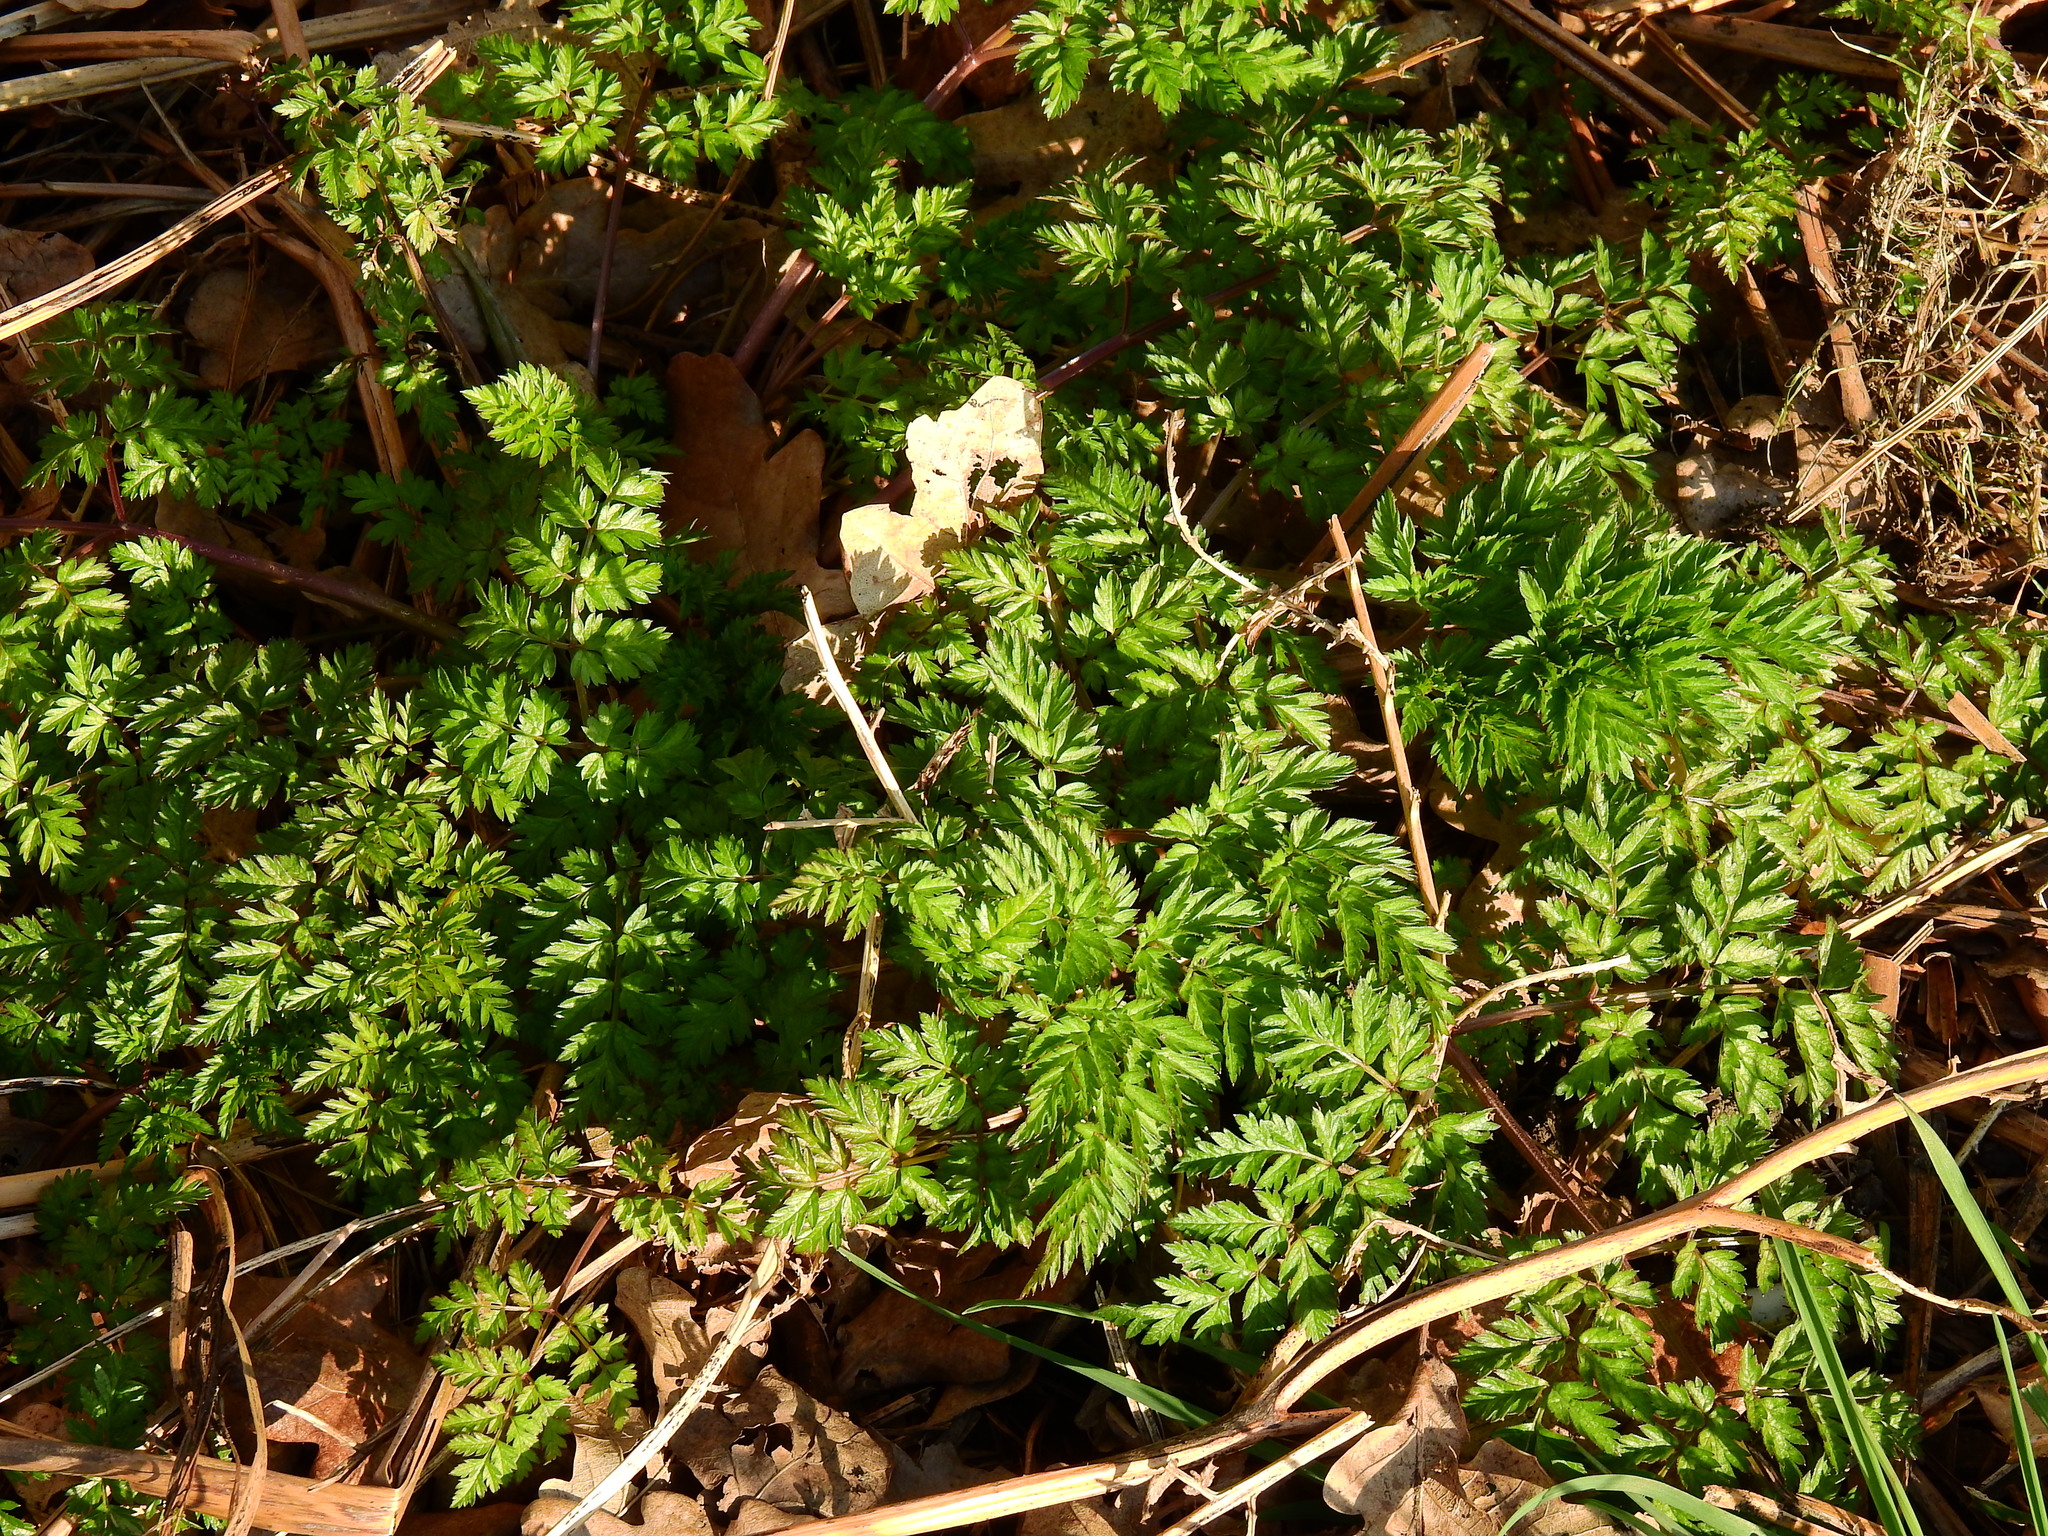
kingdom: Plantae
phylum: Tracheophyta
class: Magnoliopsida
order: Apiales
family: Apiaceae
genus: Anthriscus
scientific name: Anthriscus sylvestris
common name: Cow parsley
